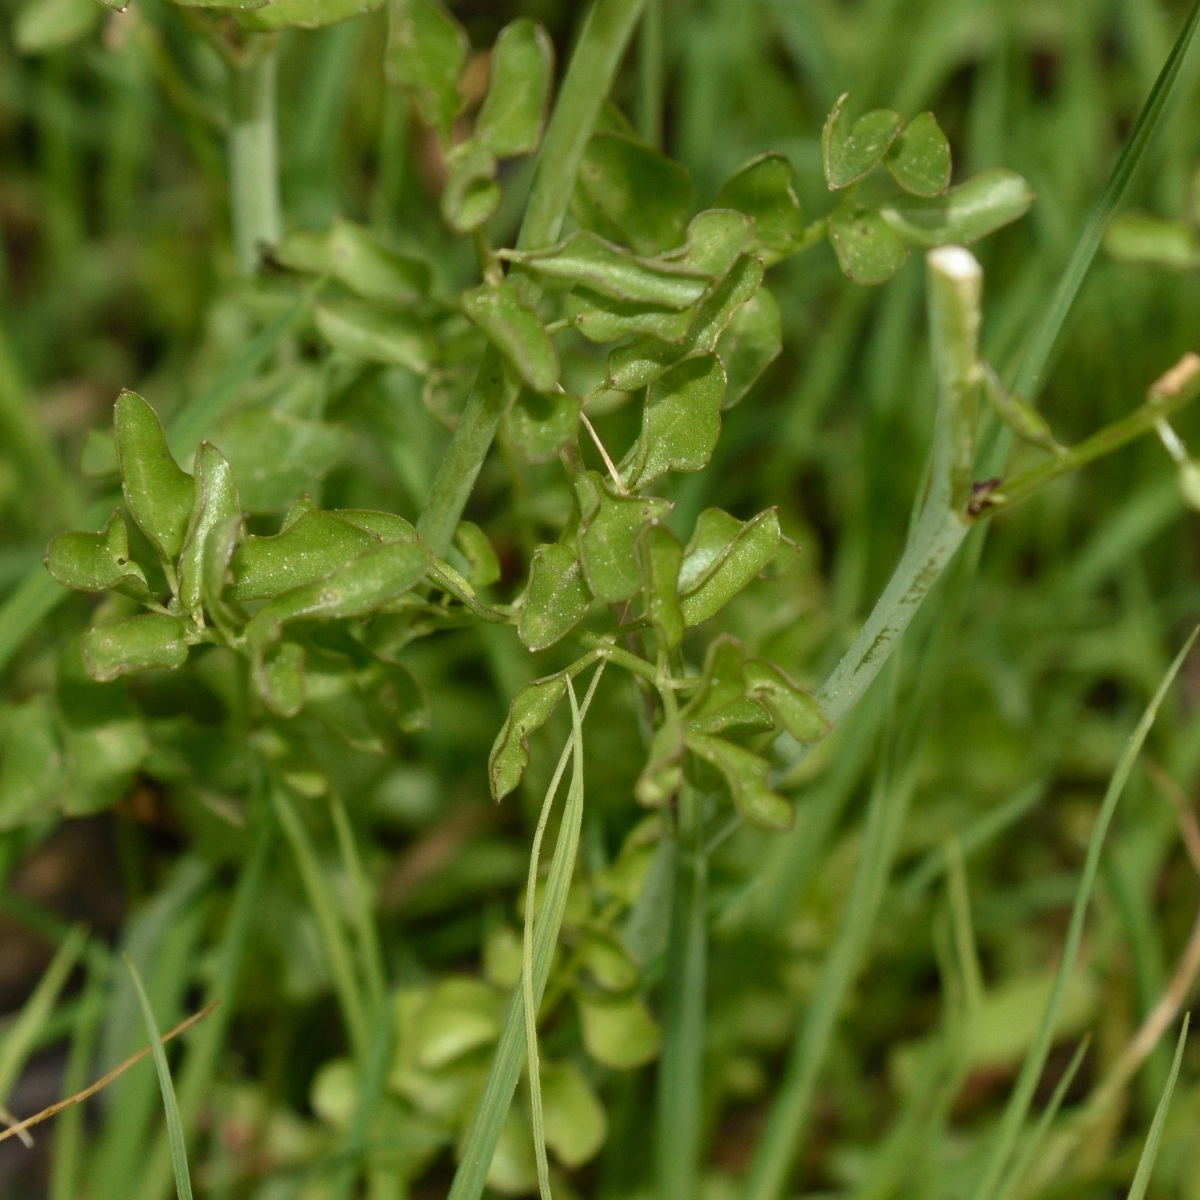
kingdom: Plantae
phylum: Tracheophyta
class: Magnoliopsida
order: Brassicales
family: Brassicaceae
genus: Cardamine
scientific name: Cardamine dentata
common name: Toothed bittercress
